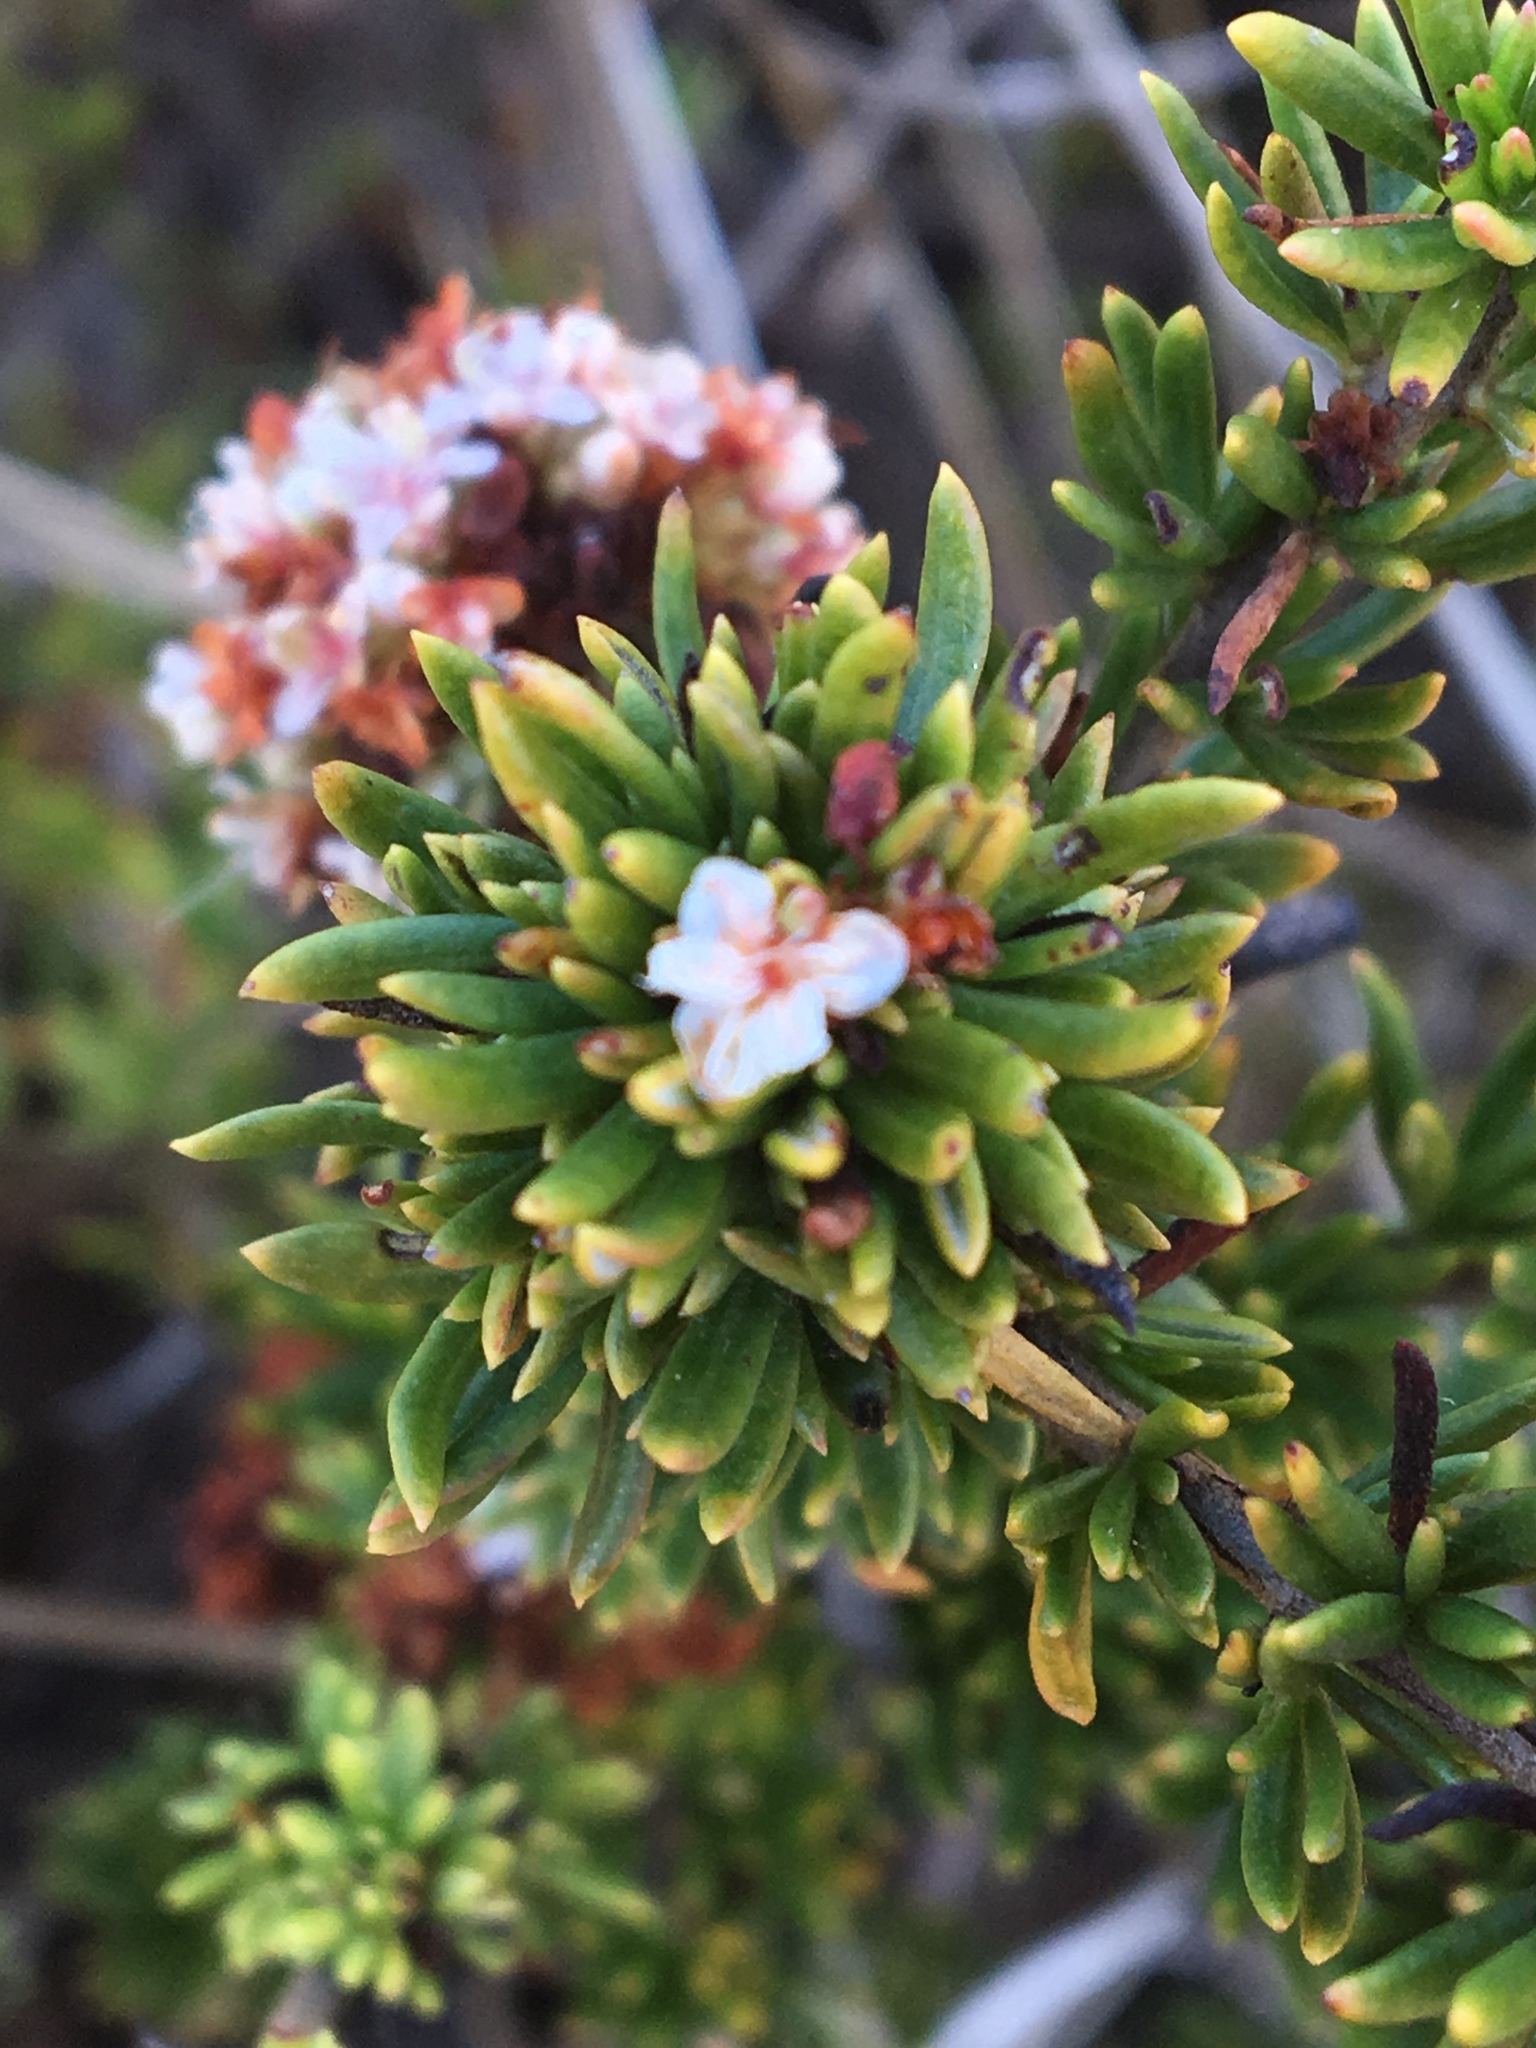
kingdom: Plantae
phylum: Tracheophyta
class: Magnoliopsida
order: Caryophyllales
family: Polygonaceae
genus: Eriogonum
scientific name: Eriogonum fasciculatum
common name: California wild buckwheat
